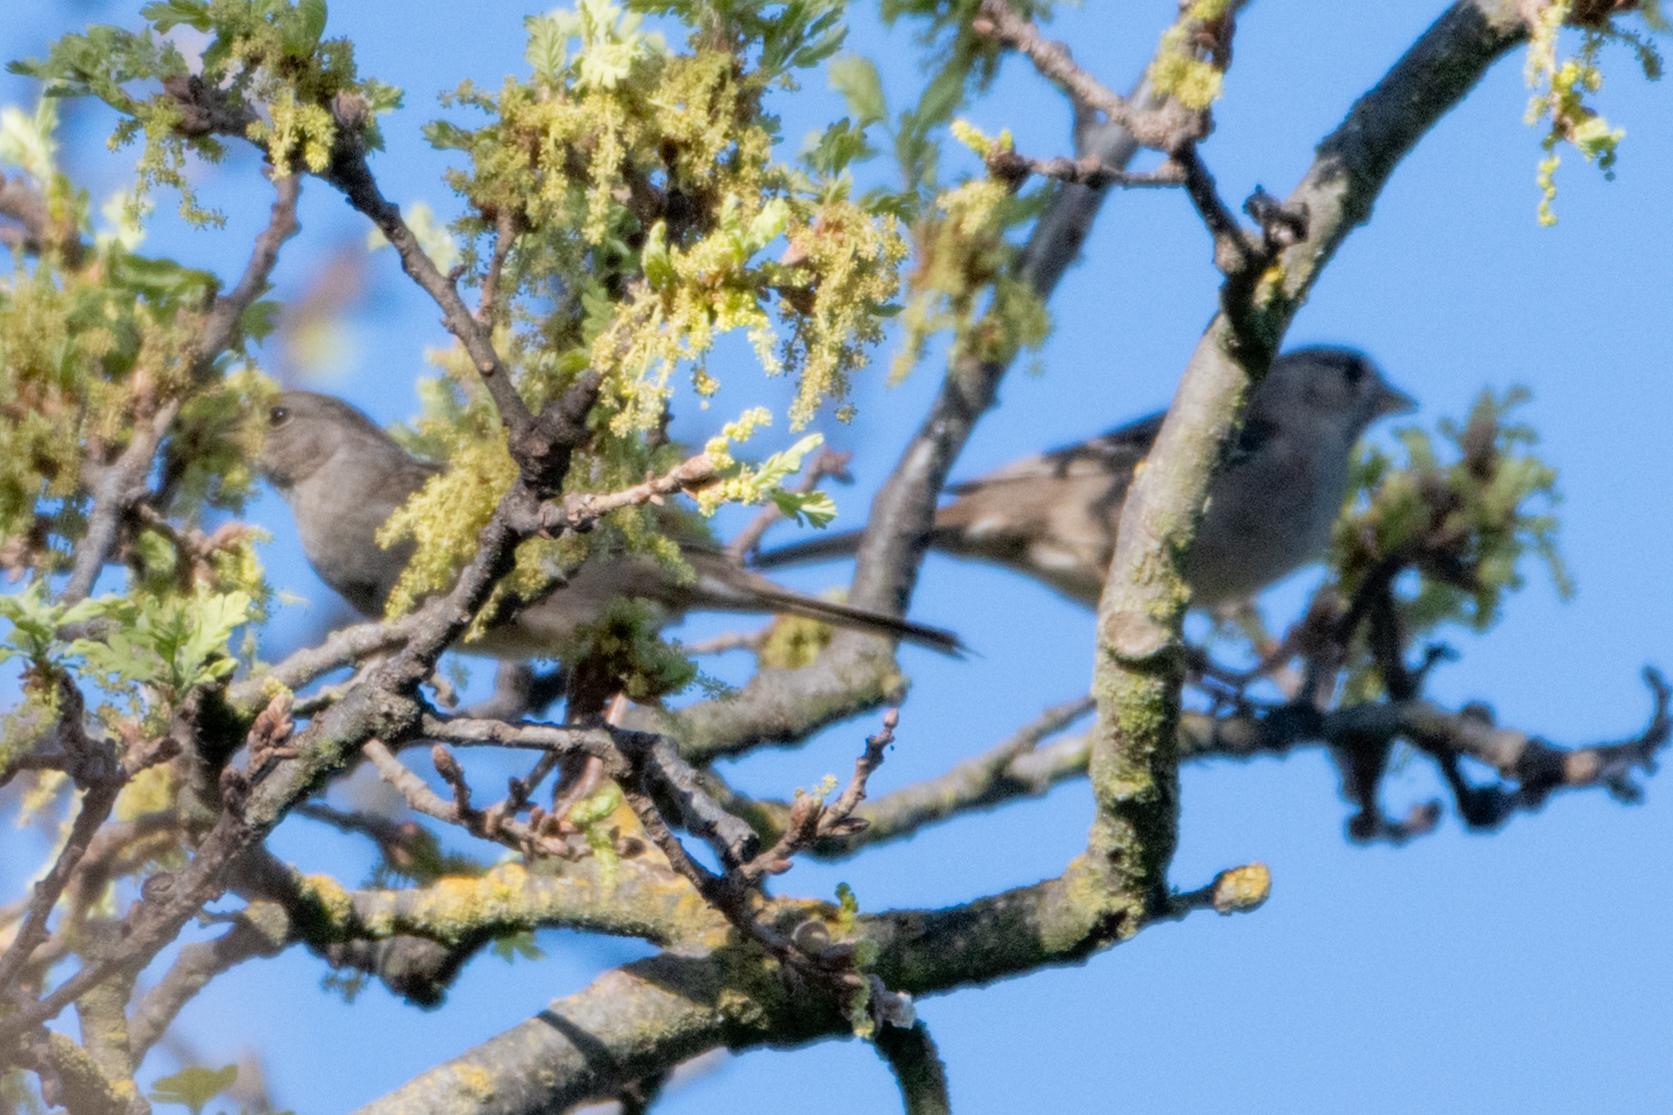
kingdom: Animalia
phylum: Chordata
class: Aves
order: Passeriformes
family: Passerellidae
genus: Zonotrichia
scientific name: Zonotrichia atricapilla
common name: Golden-crowned sparrow
